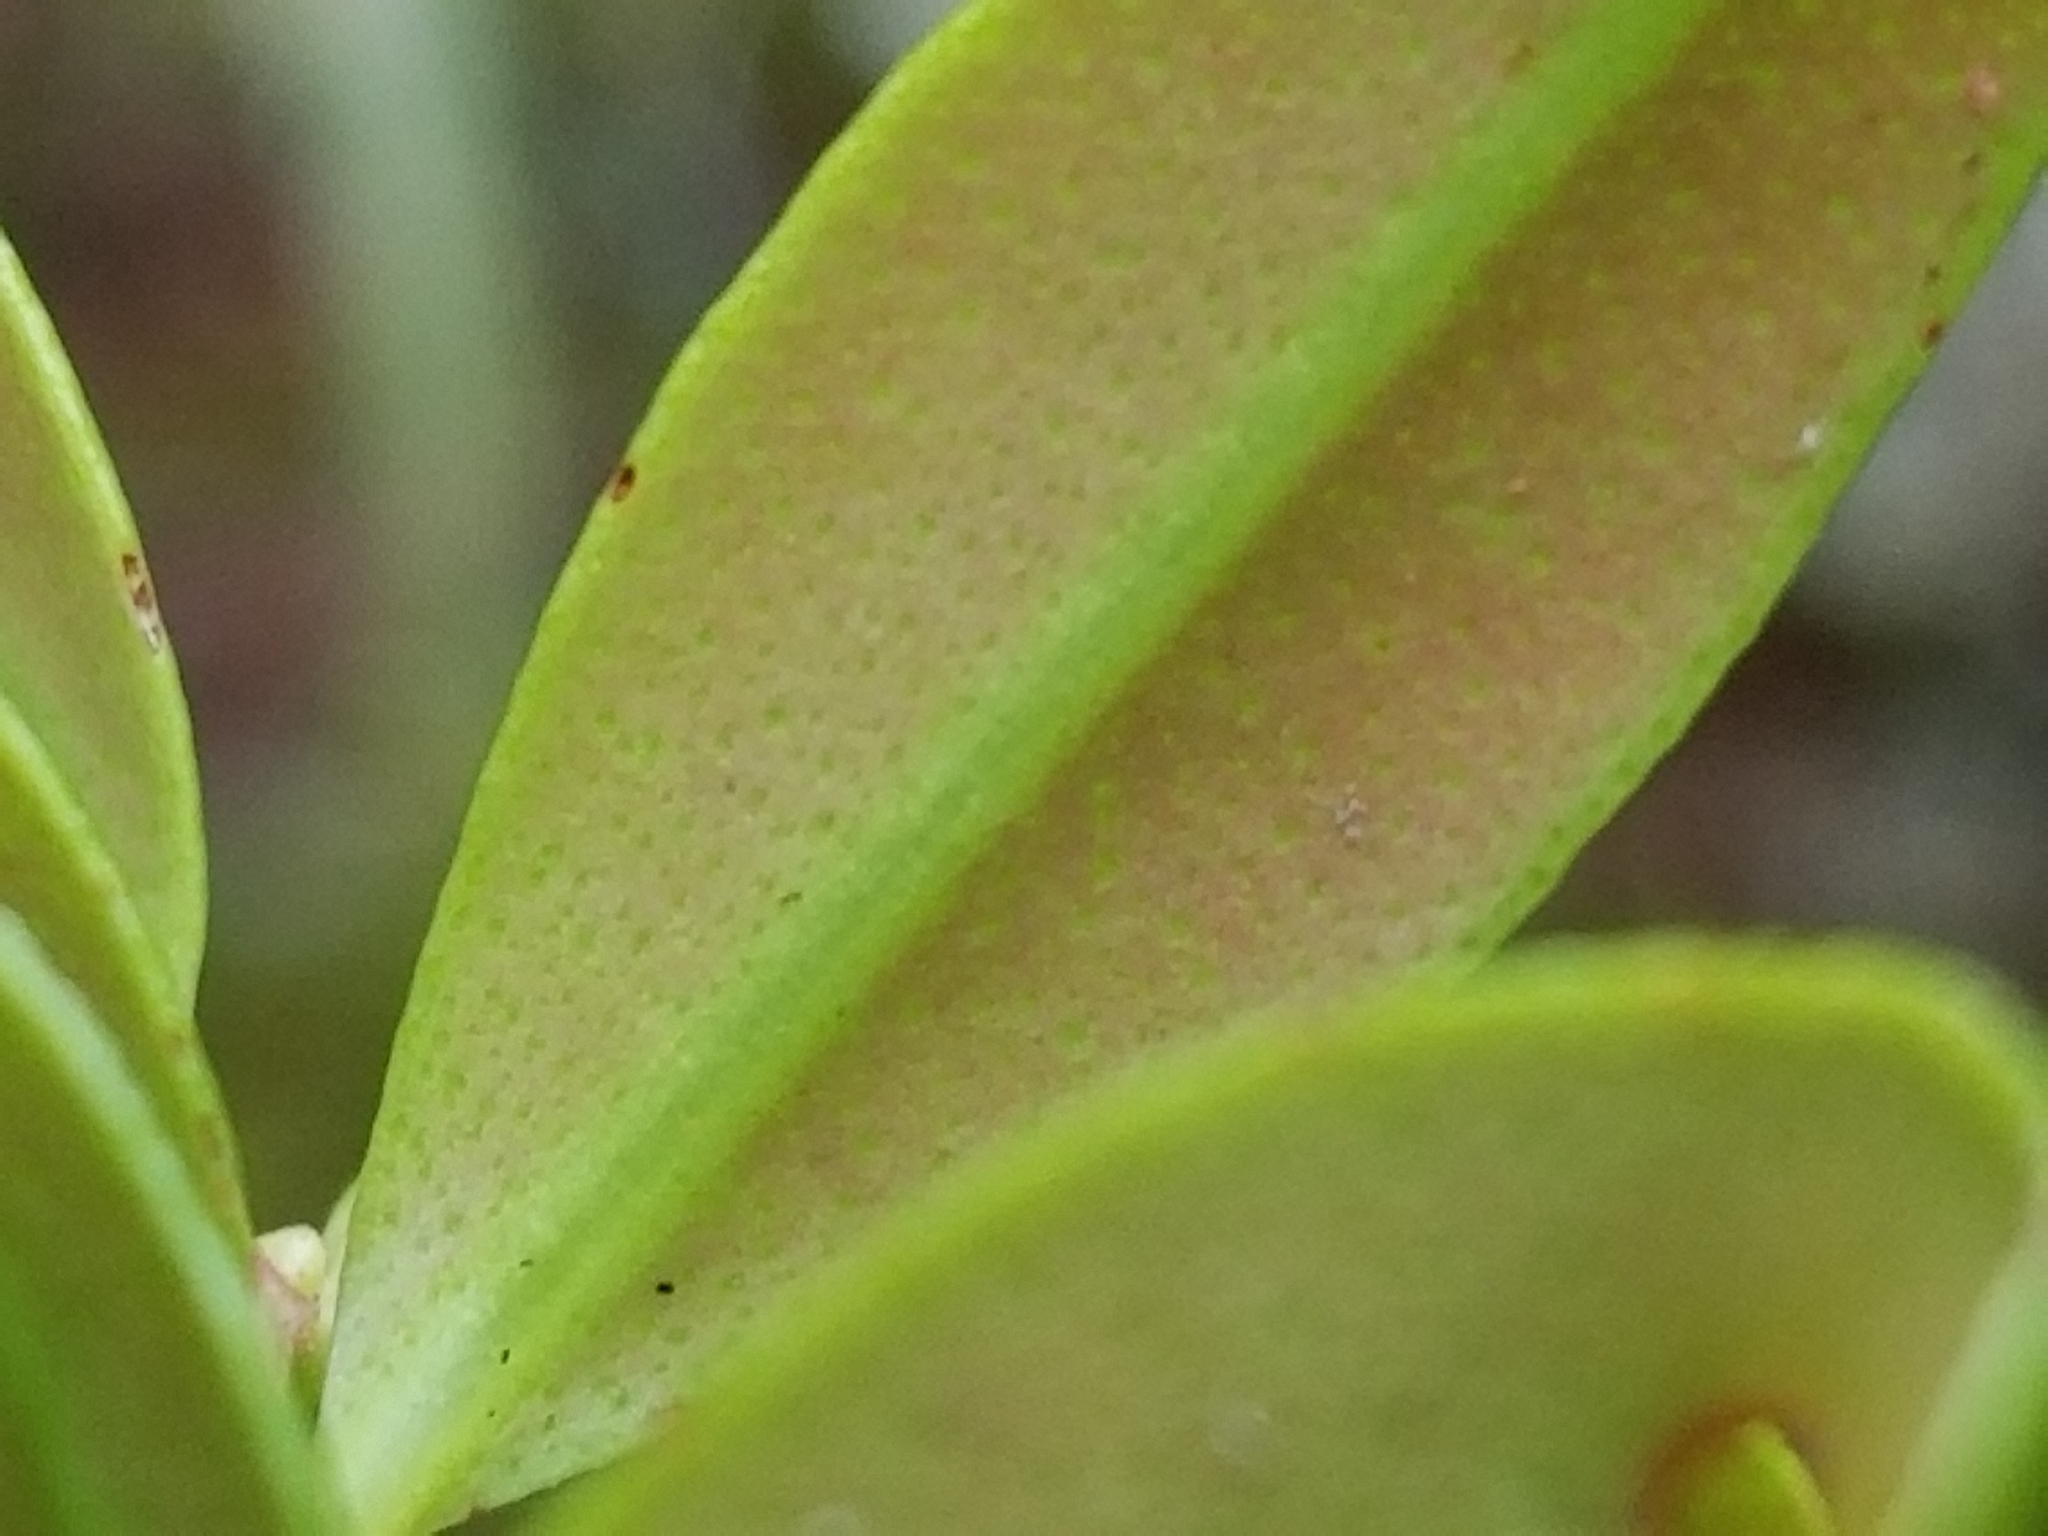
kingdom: Plantae
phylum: Tracheophyta
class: Magnoliopsida
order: Myrtales
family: Myrtaceae
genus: Metrosideros
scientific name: Metrosideros umbellata
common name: Southern rata
